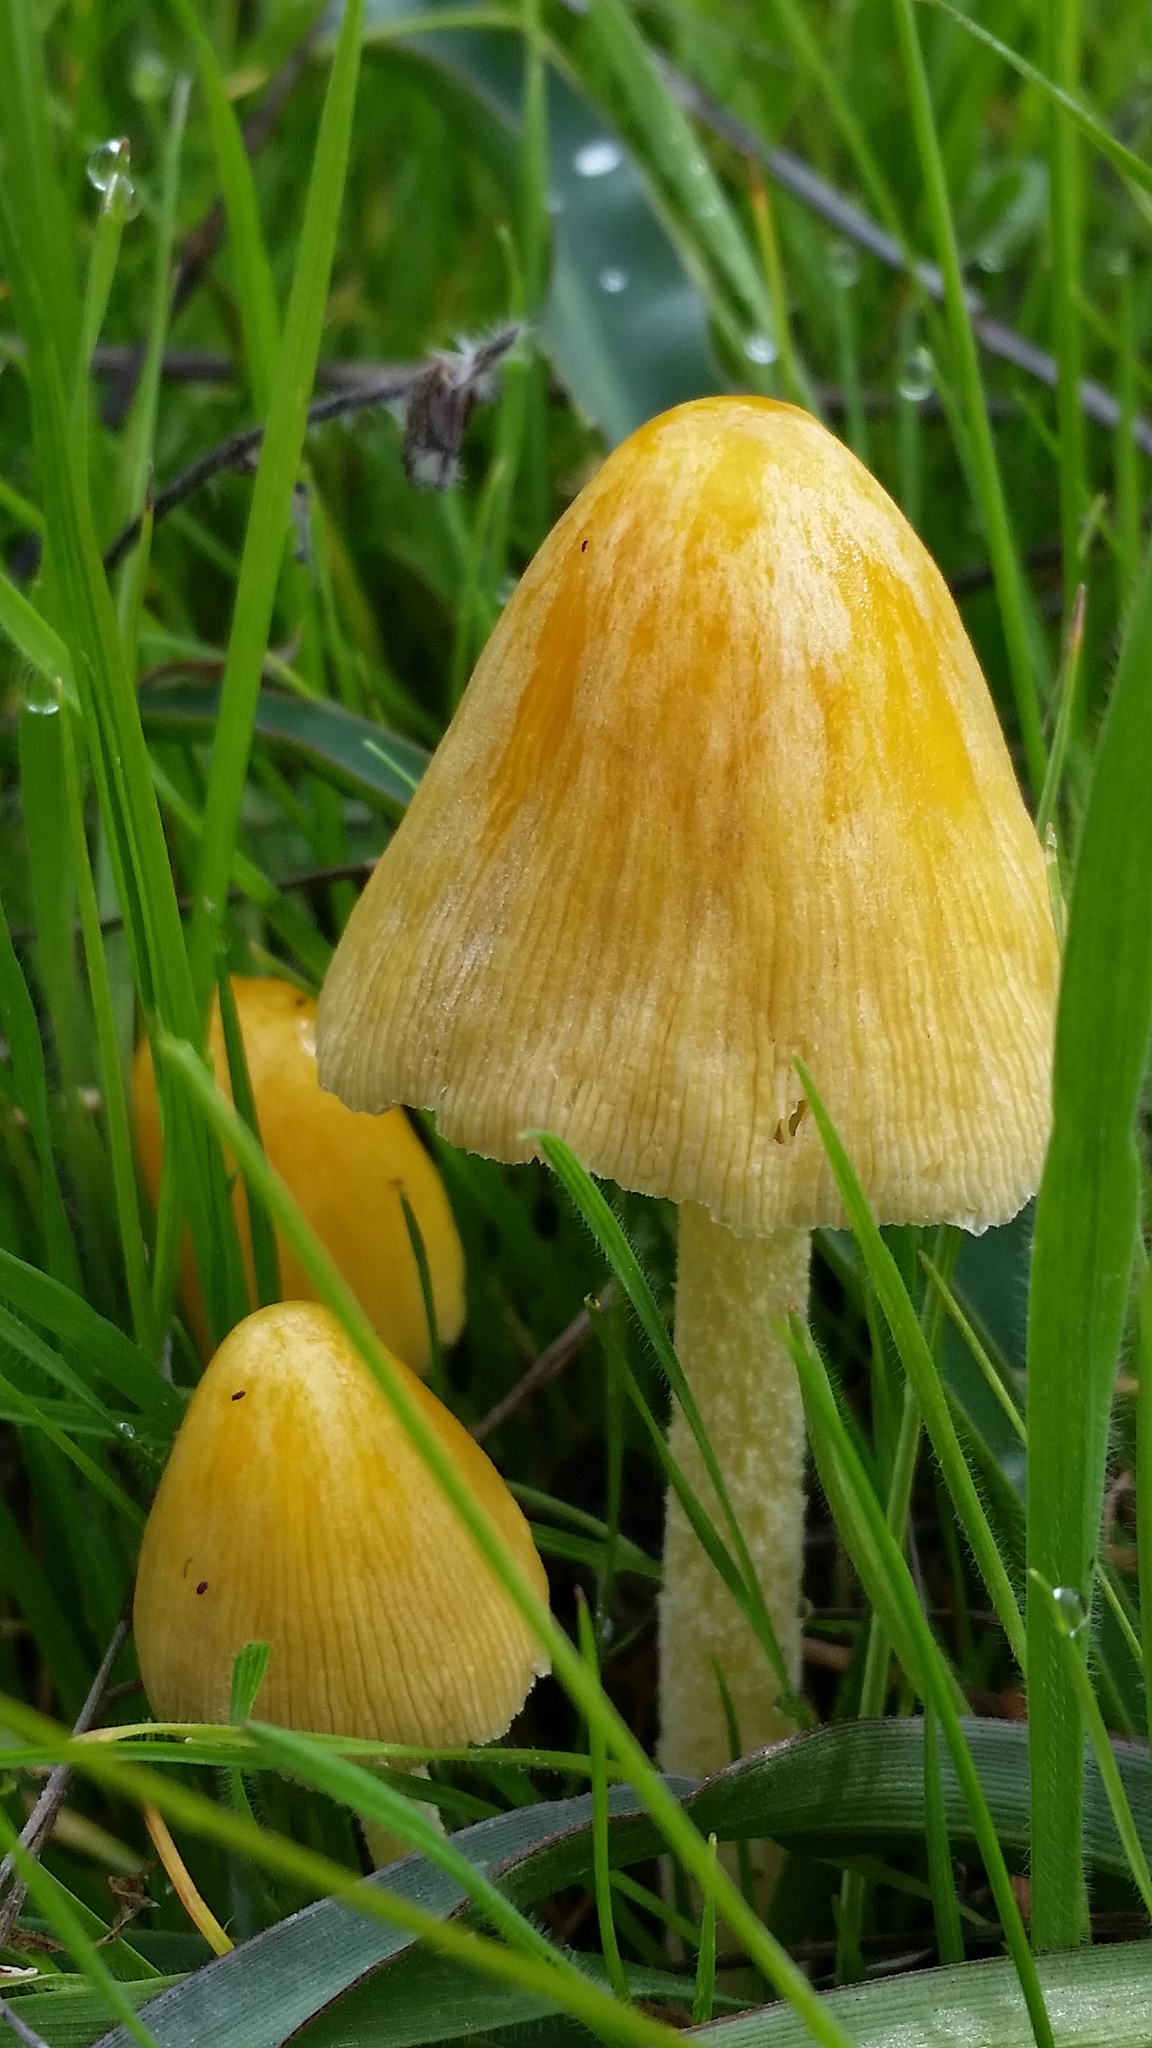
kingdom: Fungi
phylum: Basidiomycota
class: Agaricomycetes
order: Agaricales
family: Bolbitiaceae
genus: Bolbitius
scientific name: Bolbitius titubans
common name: Yellow fieldcap
